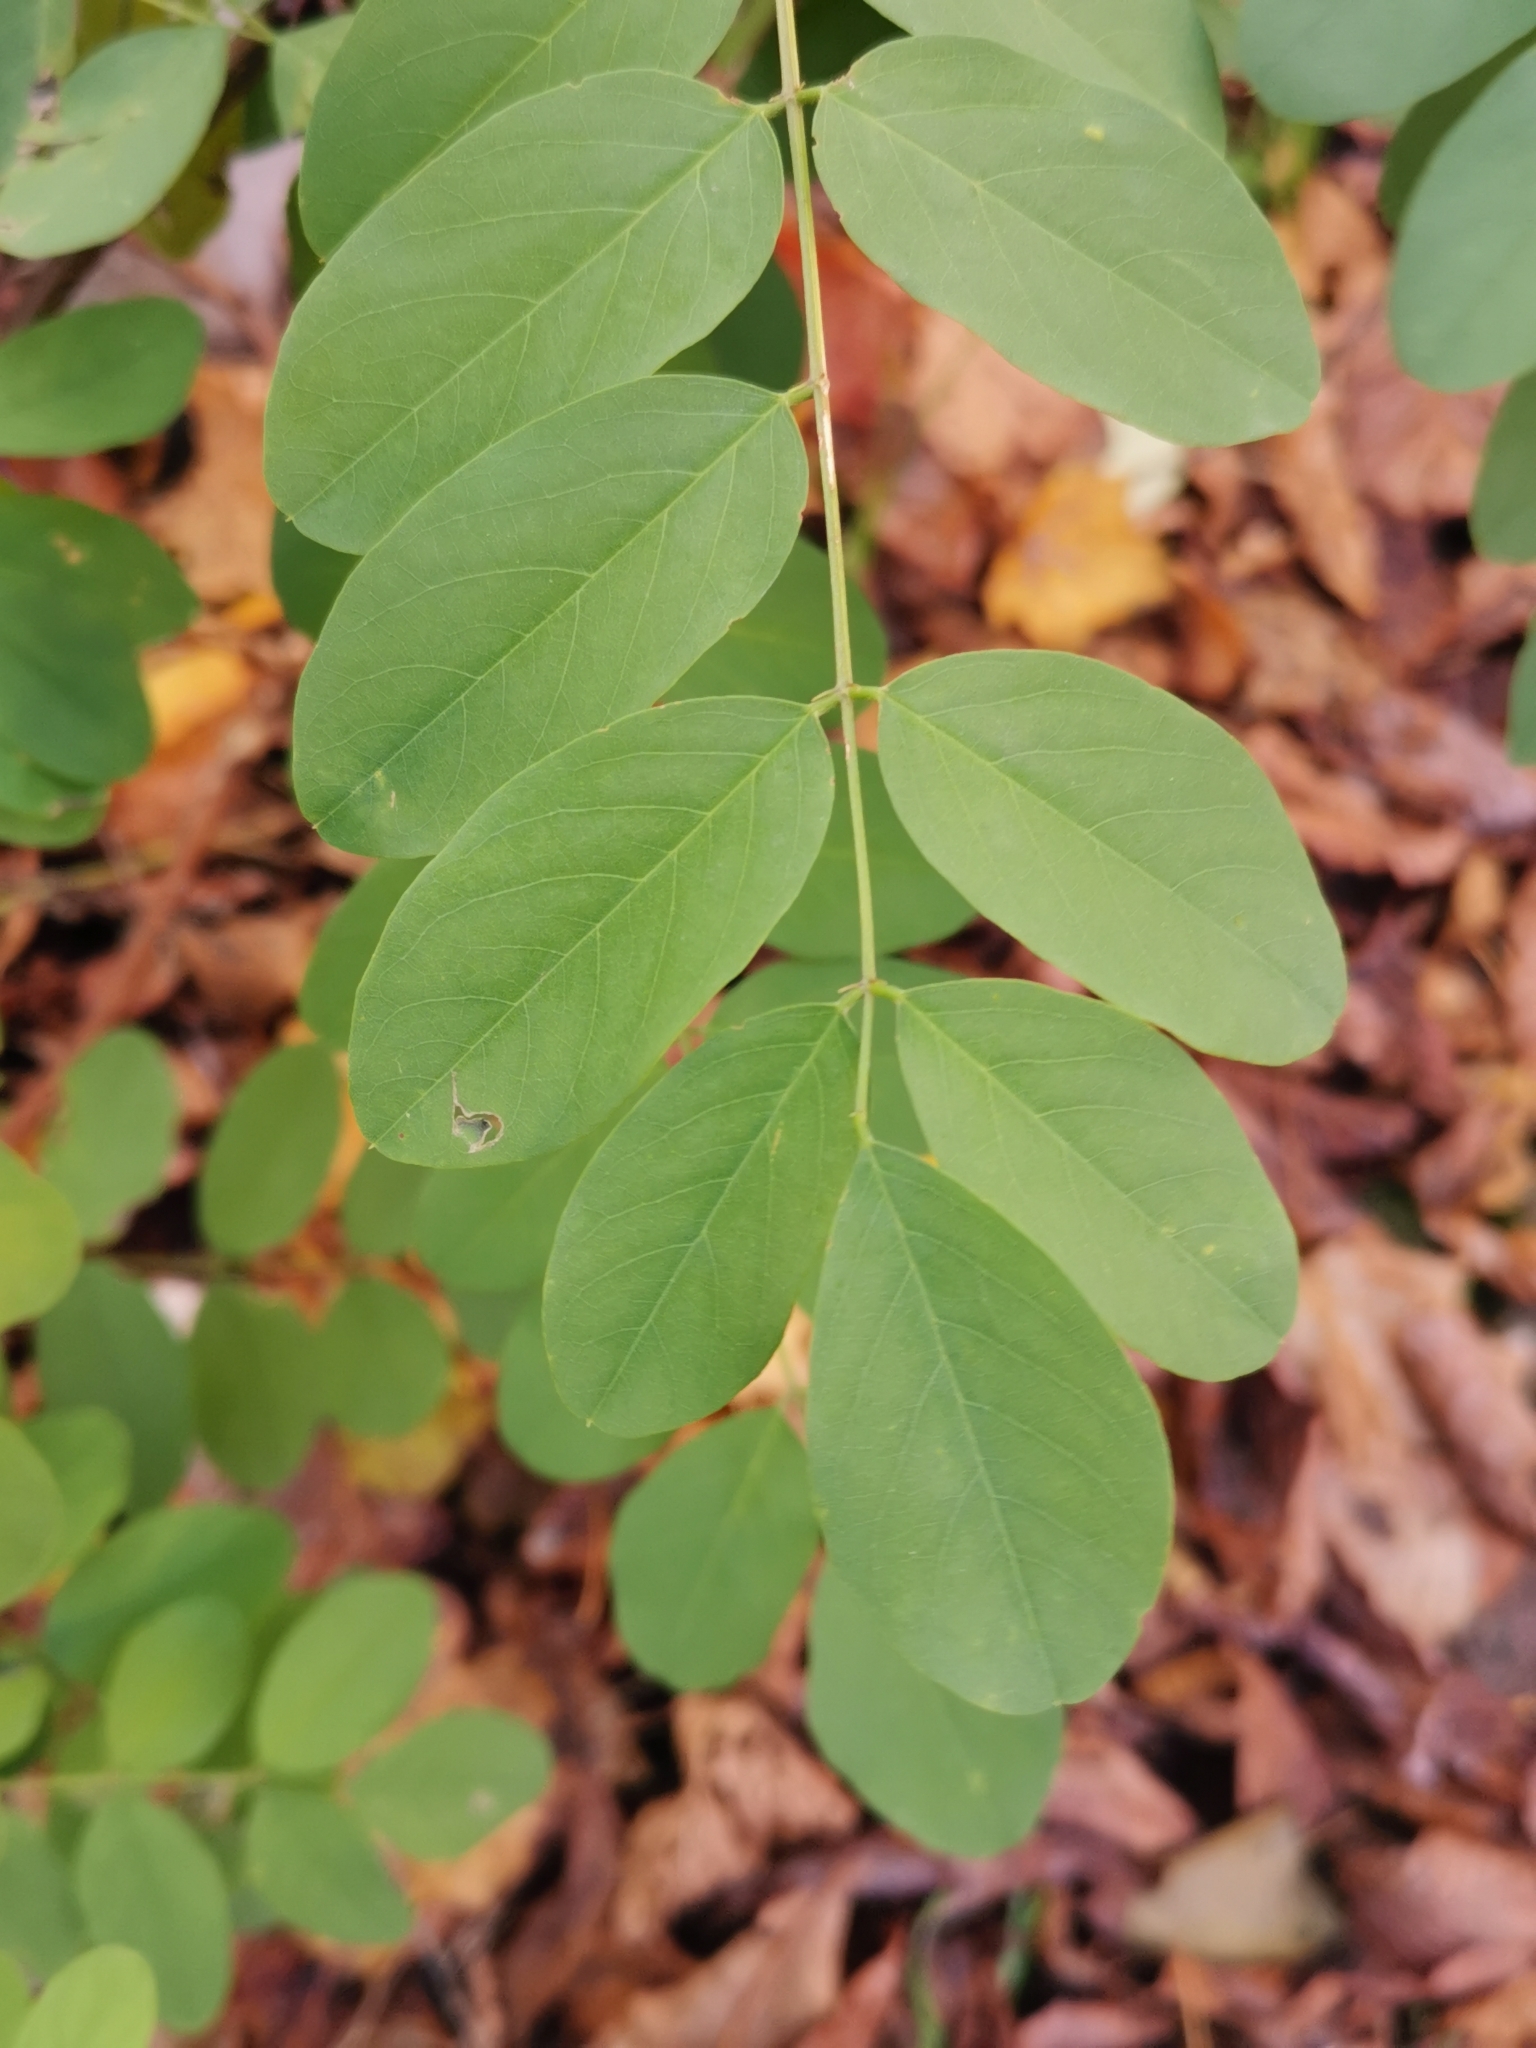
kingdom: Plantae
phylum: Tracheophyta
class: Magnoliopsida
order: Fabales
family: Fabaceae
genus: Robinia
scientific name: Robinia pseudoacacia
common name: Black locust
